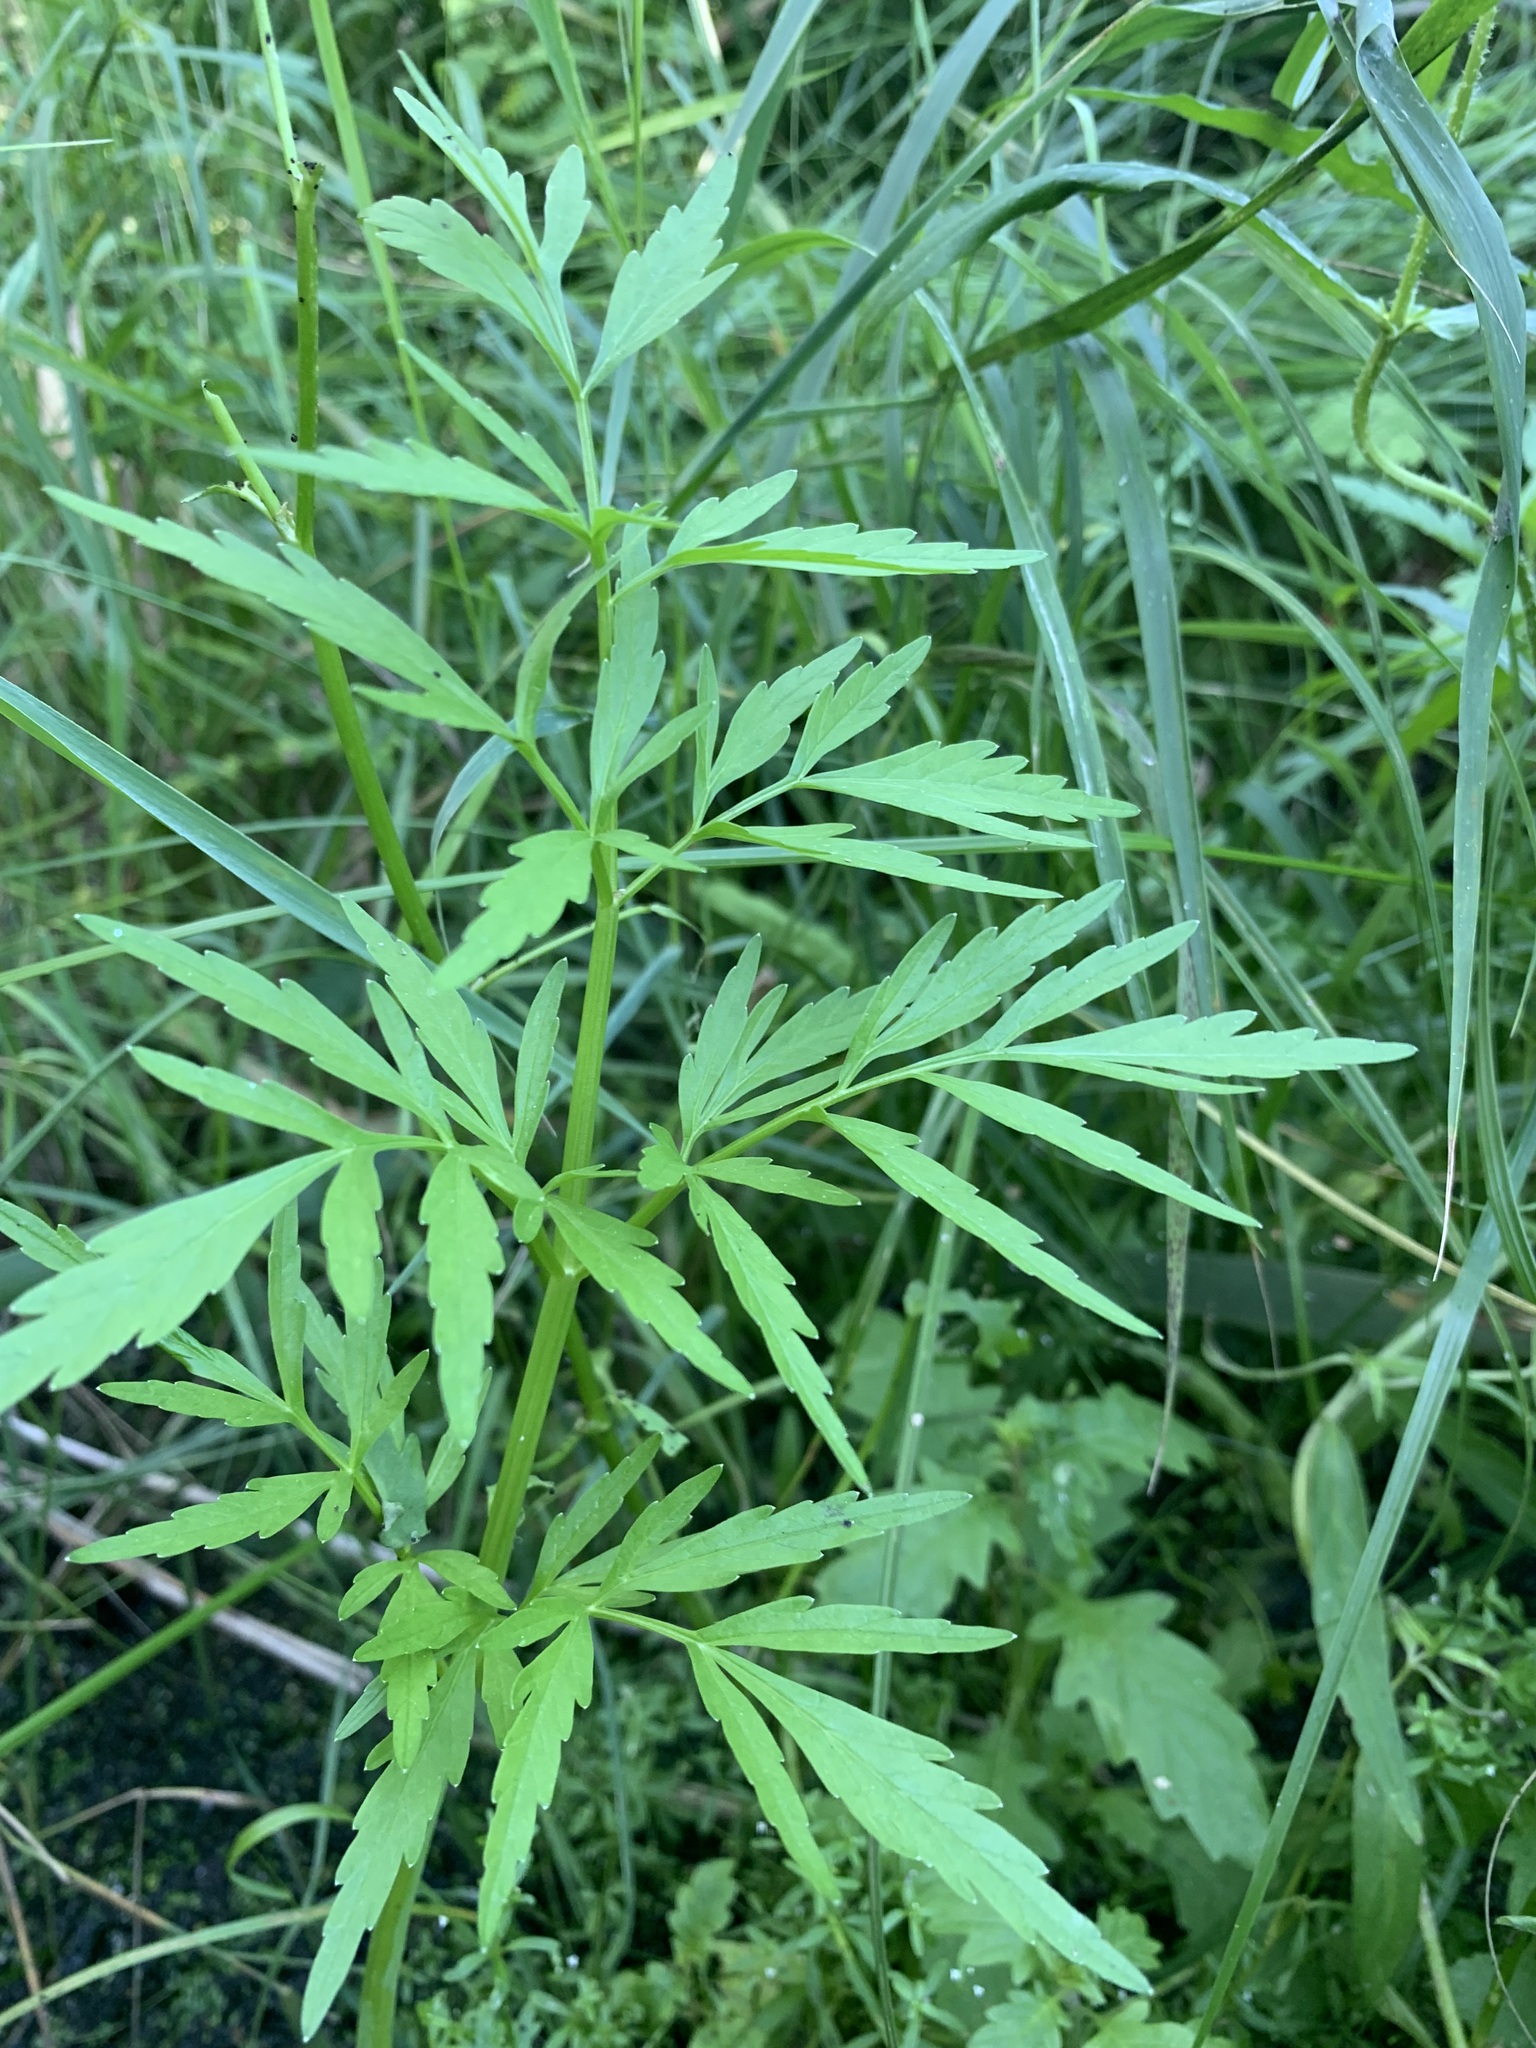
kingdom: Plantae
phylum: Tracheophyta
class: Magnoliopsida
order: Apiales
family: Apiaceae
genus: Cicuta
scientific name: Cicuta virosa
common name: Cowbane
